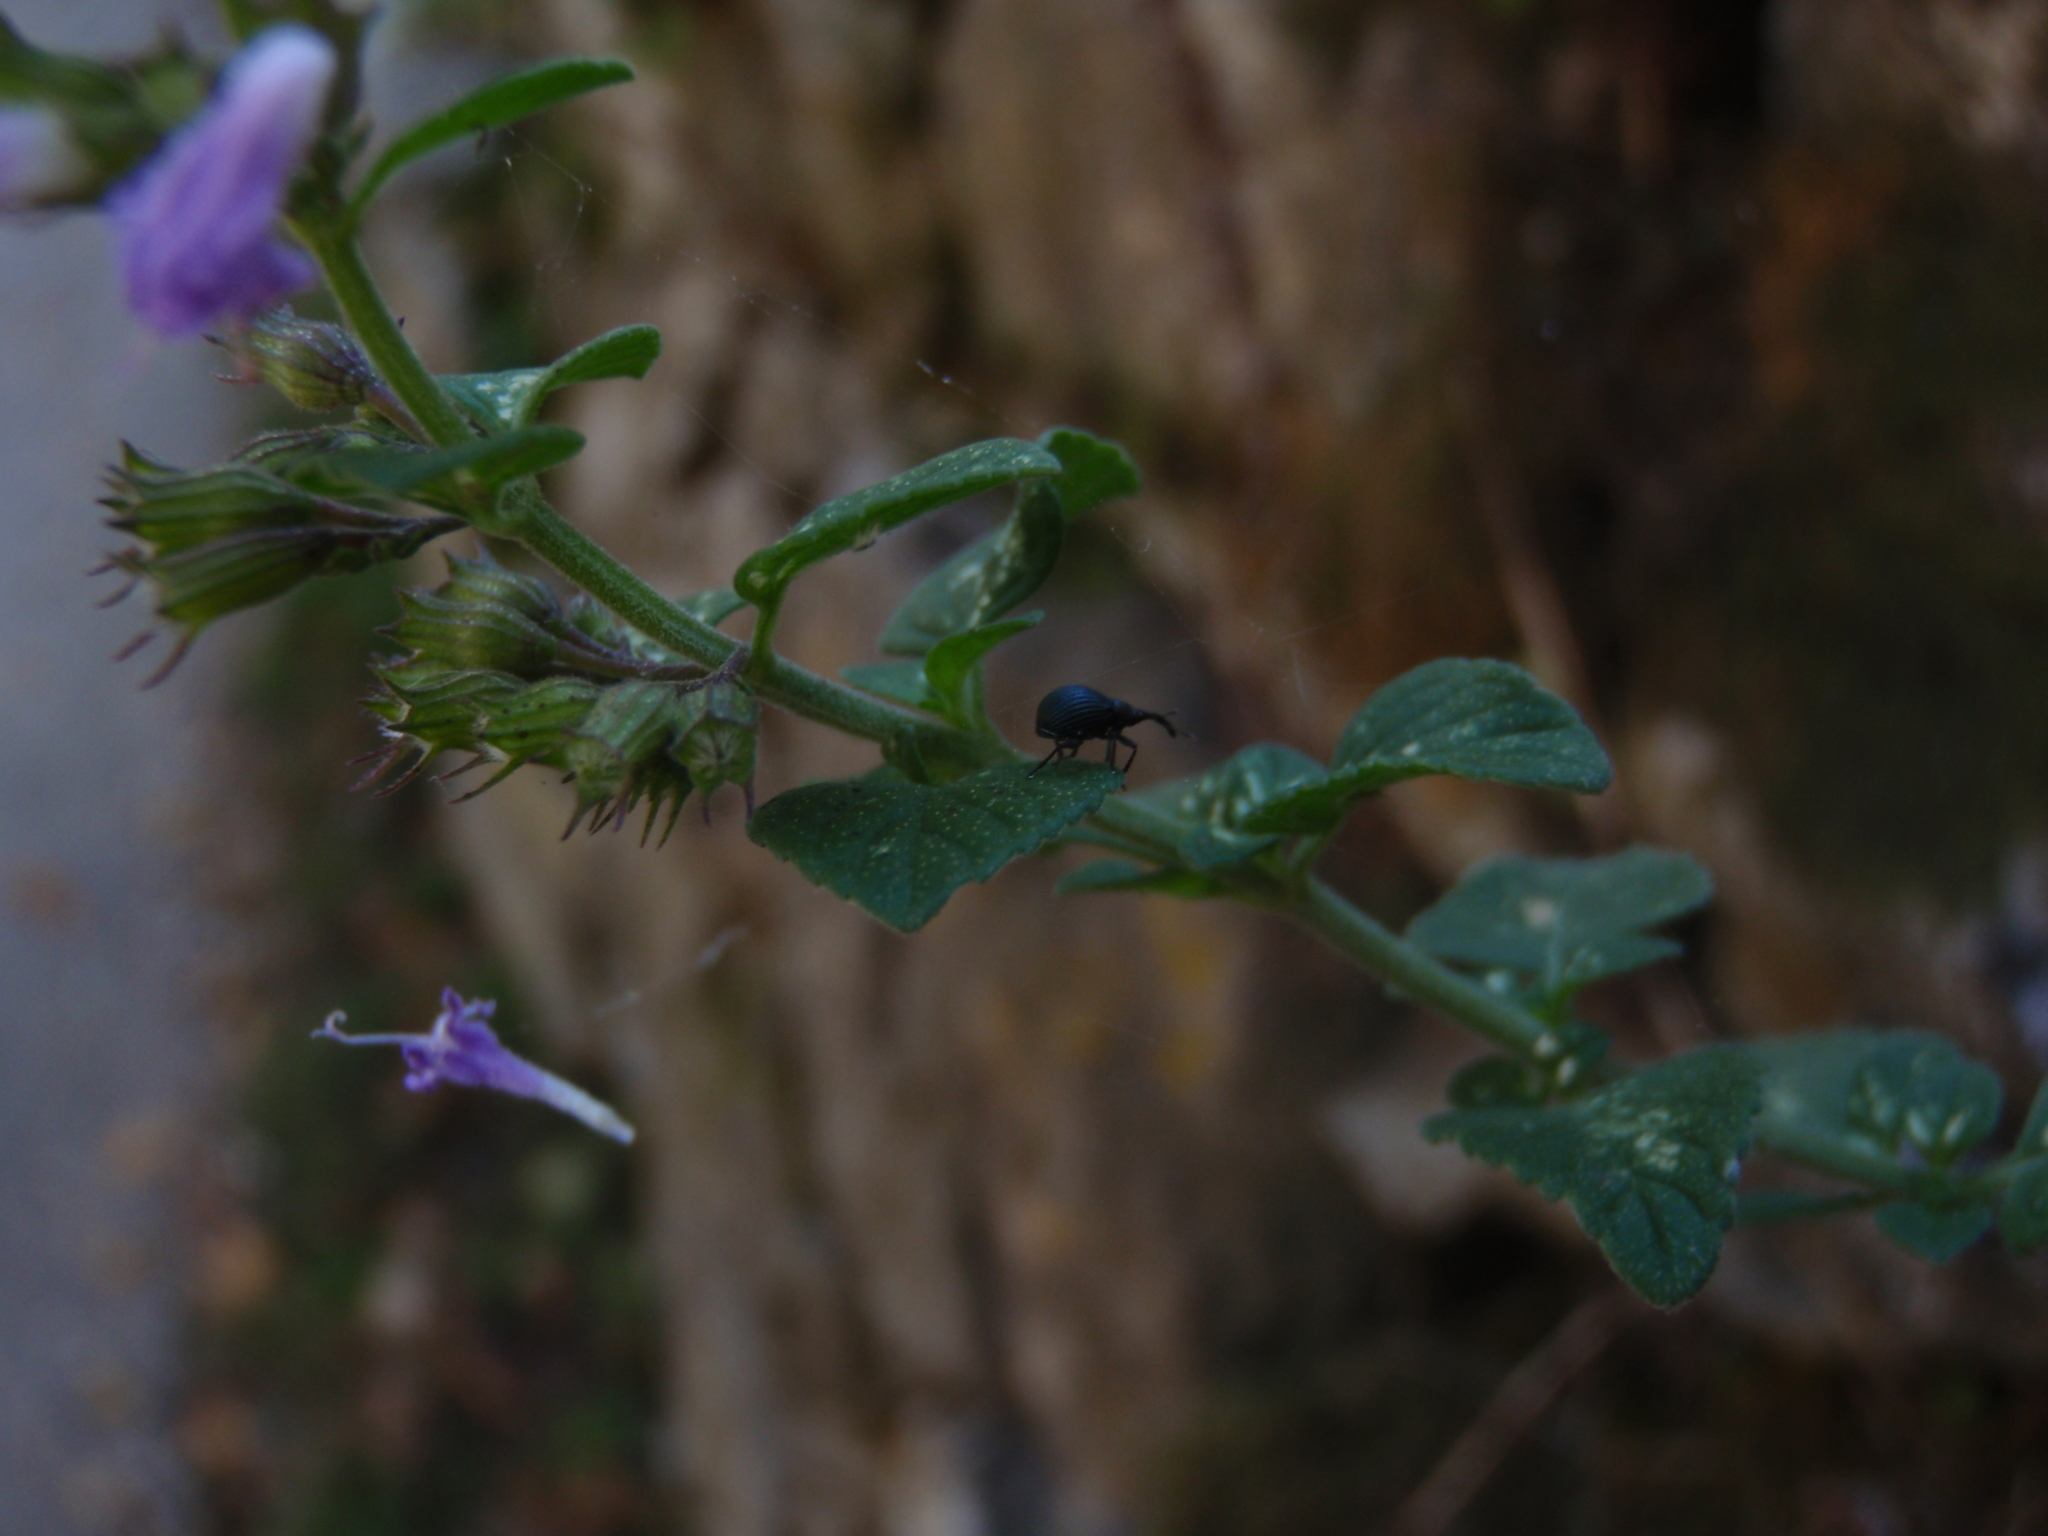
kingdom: Animalia
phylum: Arthropoda
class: Insecta
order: Coleoptera
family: Apionidae
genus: Holotrichapion
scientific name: Holotrichapion pisi
